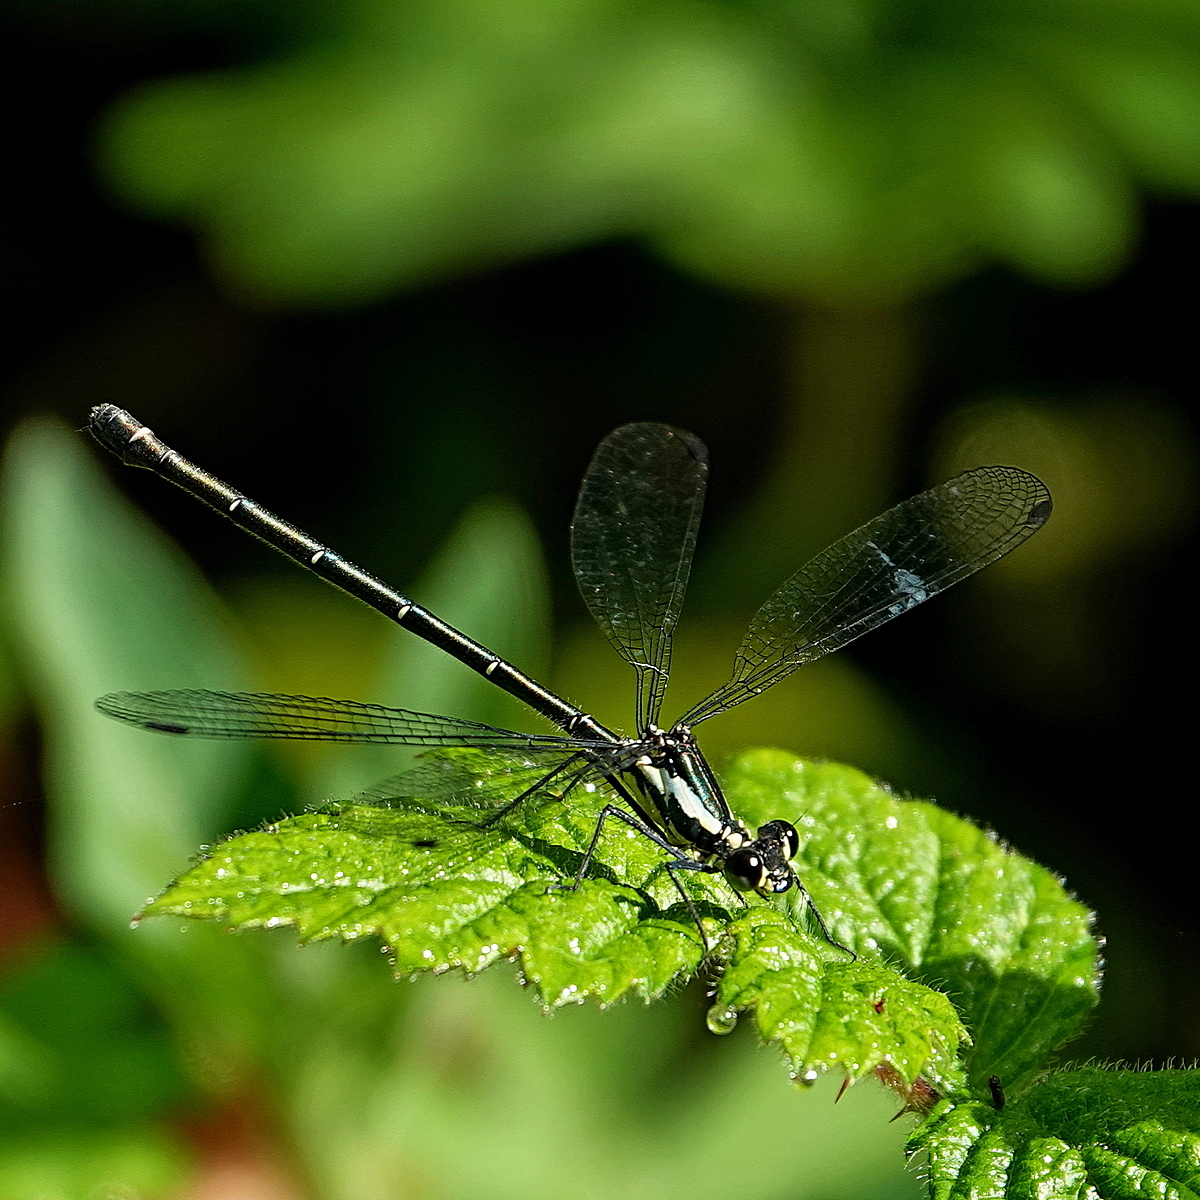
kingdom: Animalia
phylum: Arthropoda
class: Insecta
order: Odonata
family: Argiolestidae
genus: Austroargiolestes
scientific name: Austroargiolestes icteromelas
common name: Common flatwing
